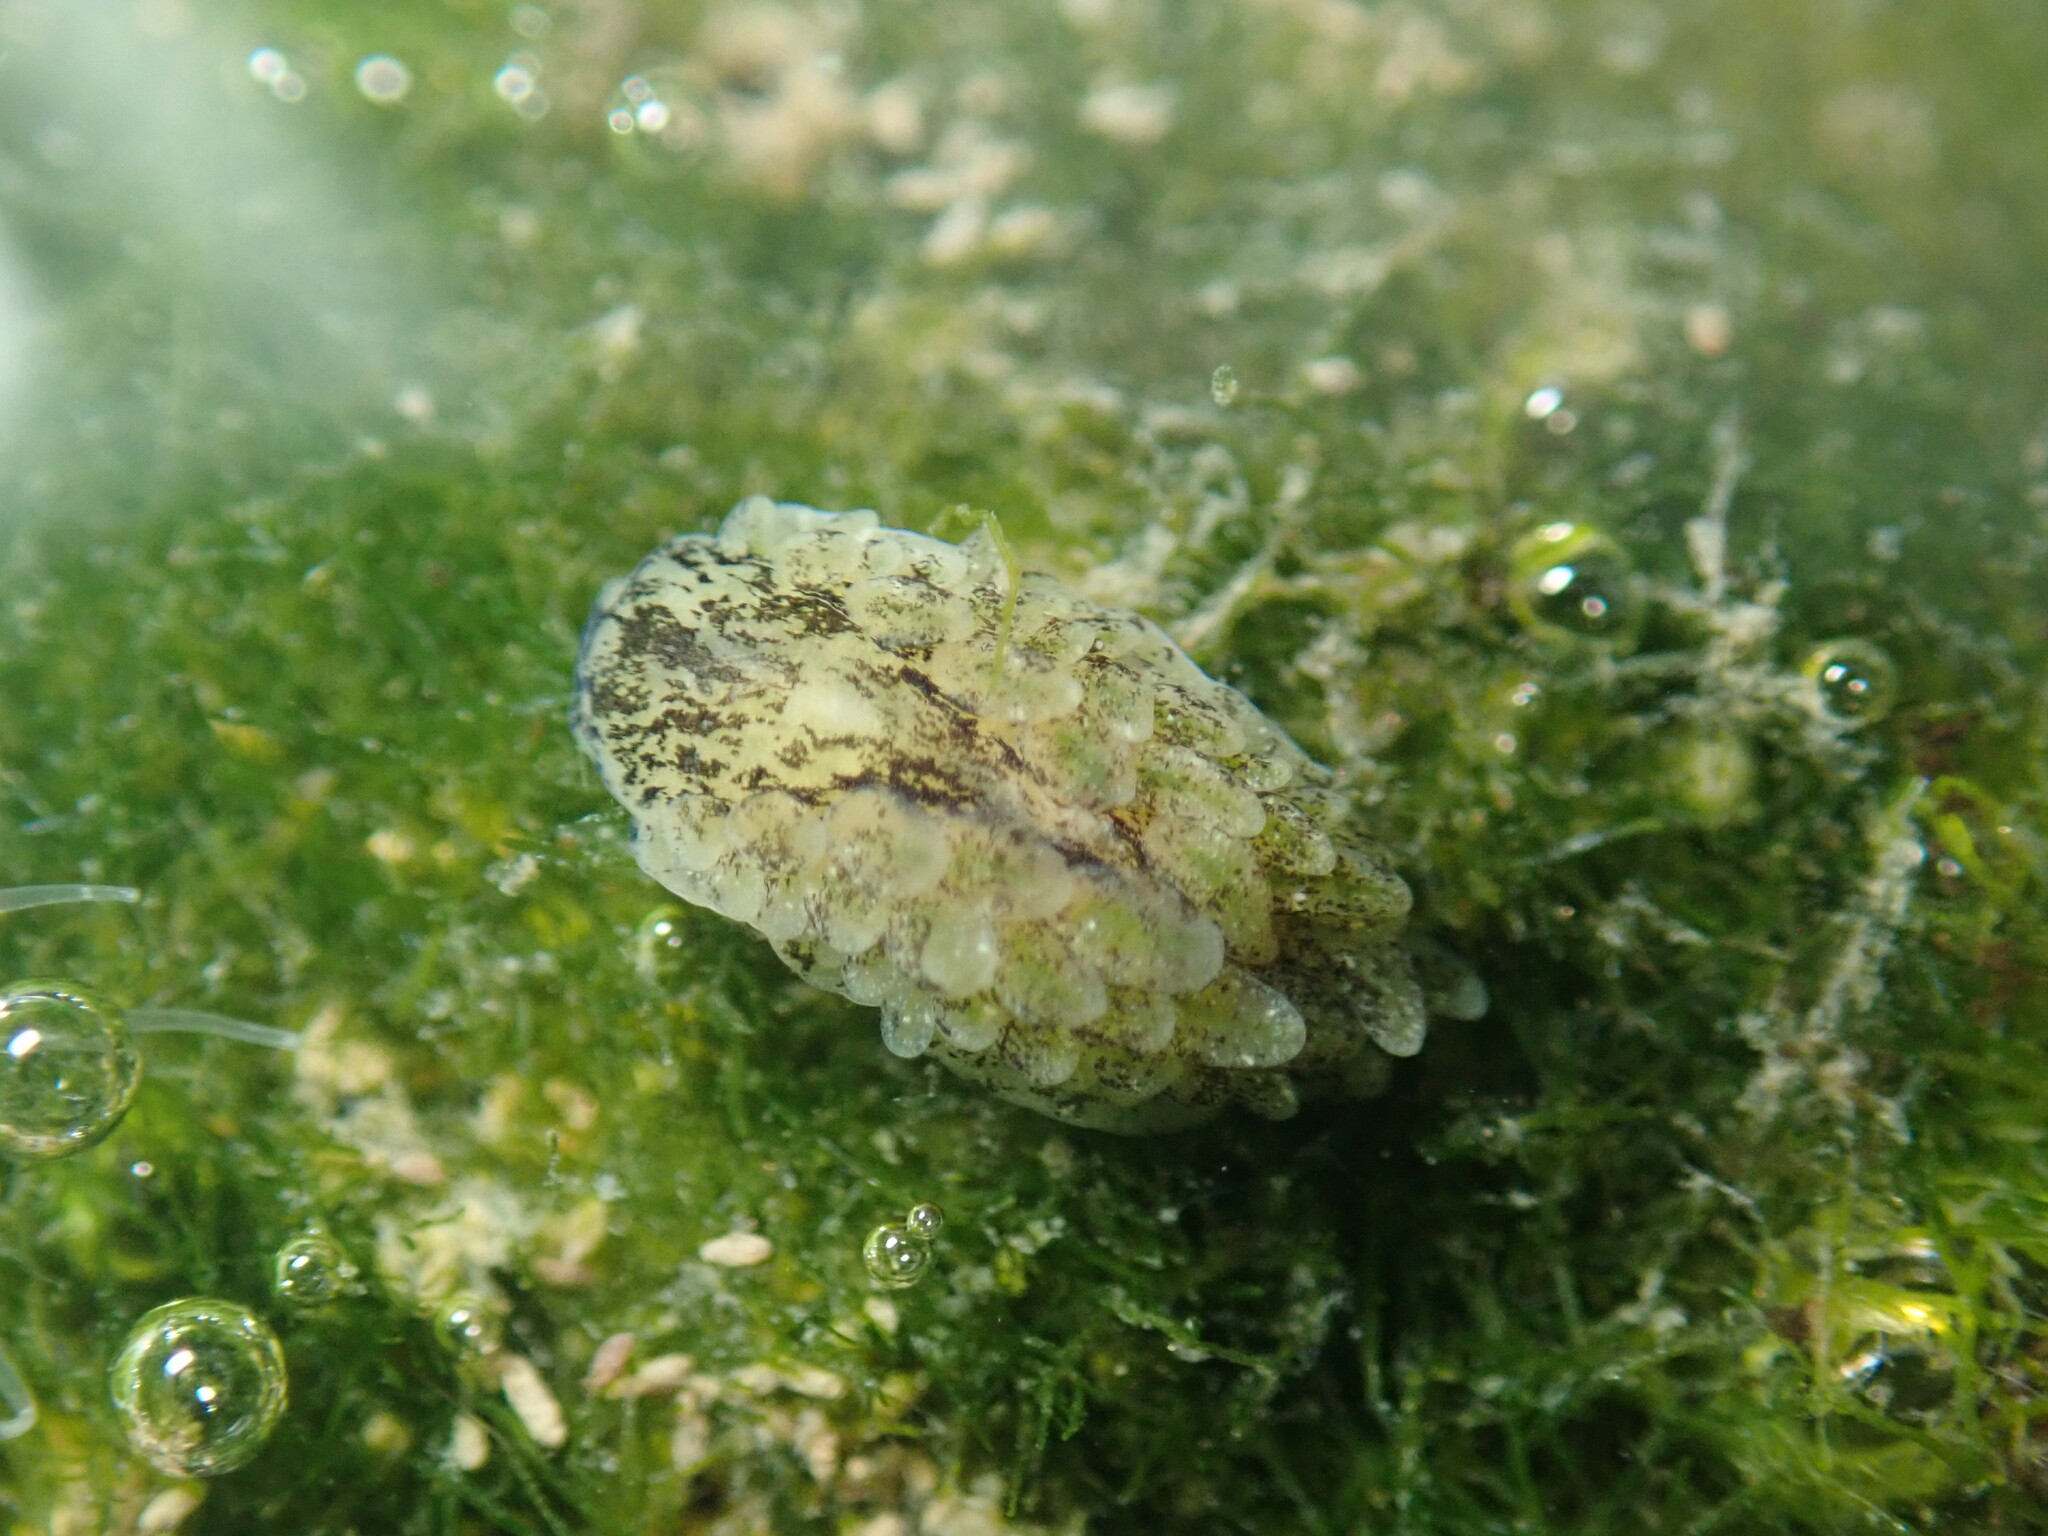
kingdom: Animalia
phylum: Mollusca
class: Gastropoda
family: Limapontiidae
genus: Alderia
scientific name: Alderia modesta
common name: Modest alderia
